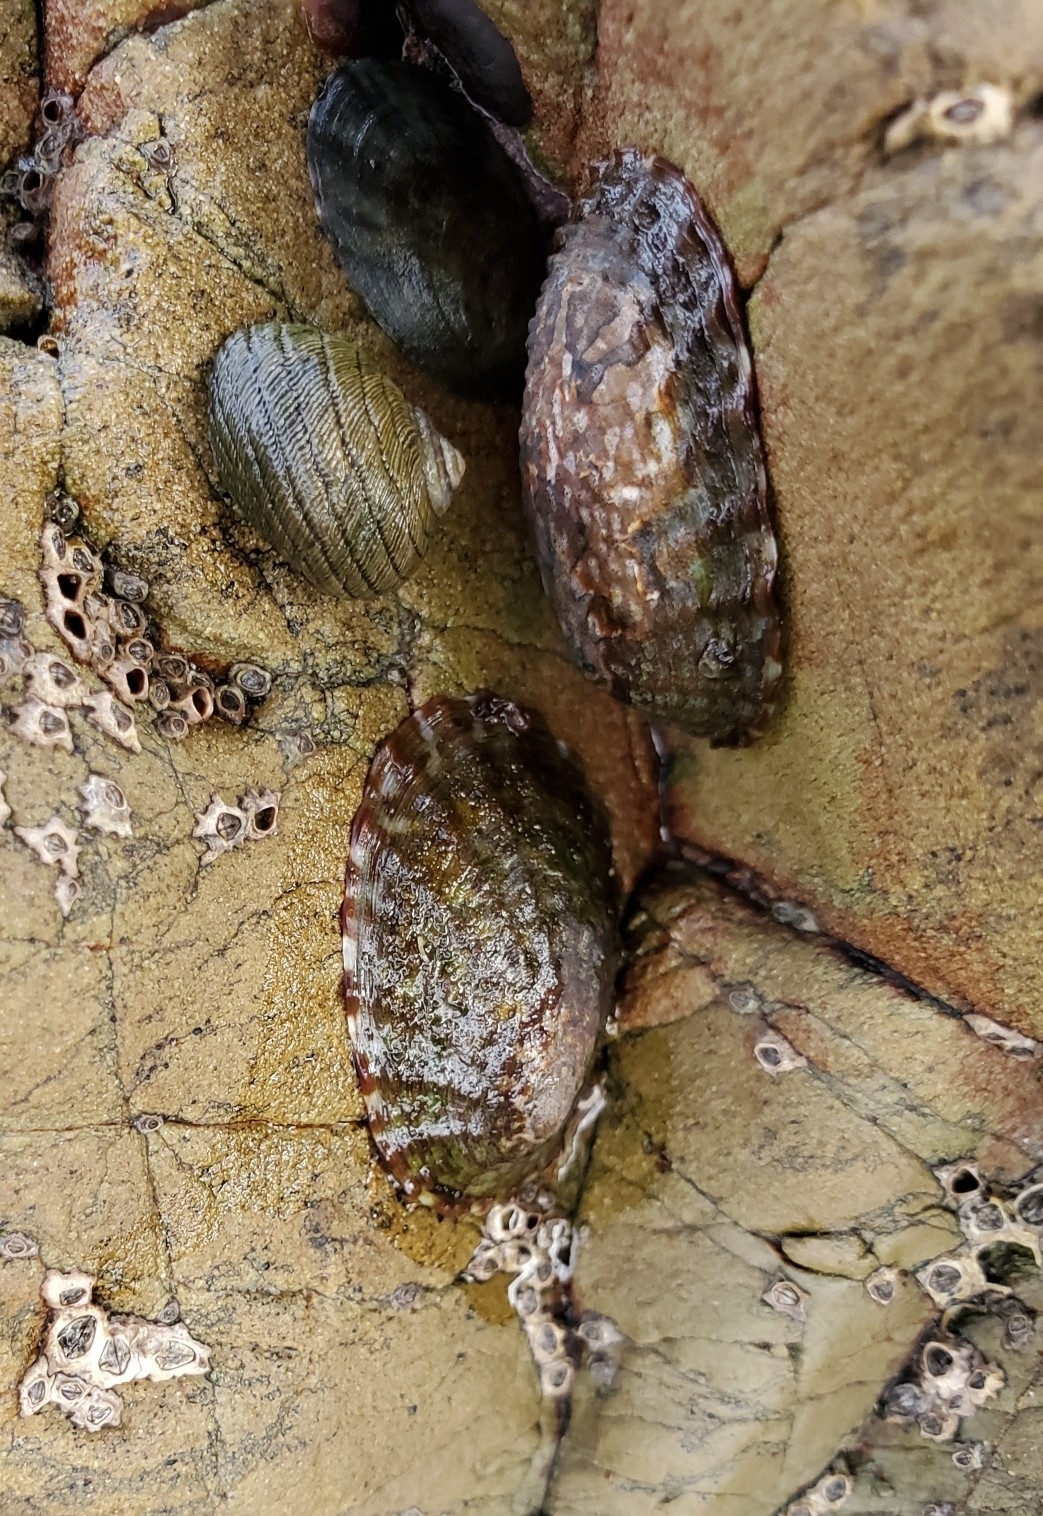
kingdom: Animalia
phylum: Mollusca
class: Gastropoda
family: Nacellidae
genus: Cellana
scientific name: Cellana denticulata
